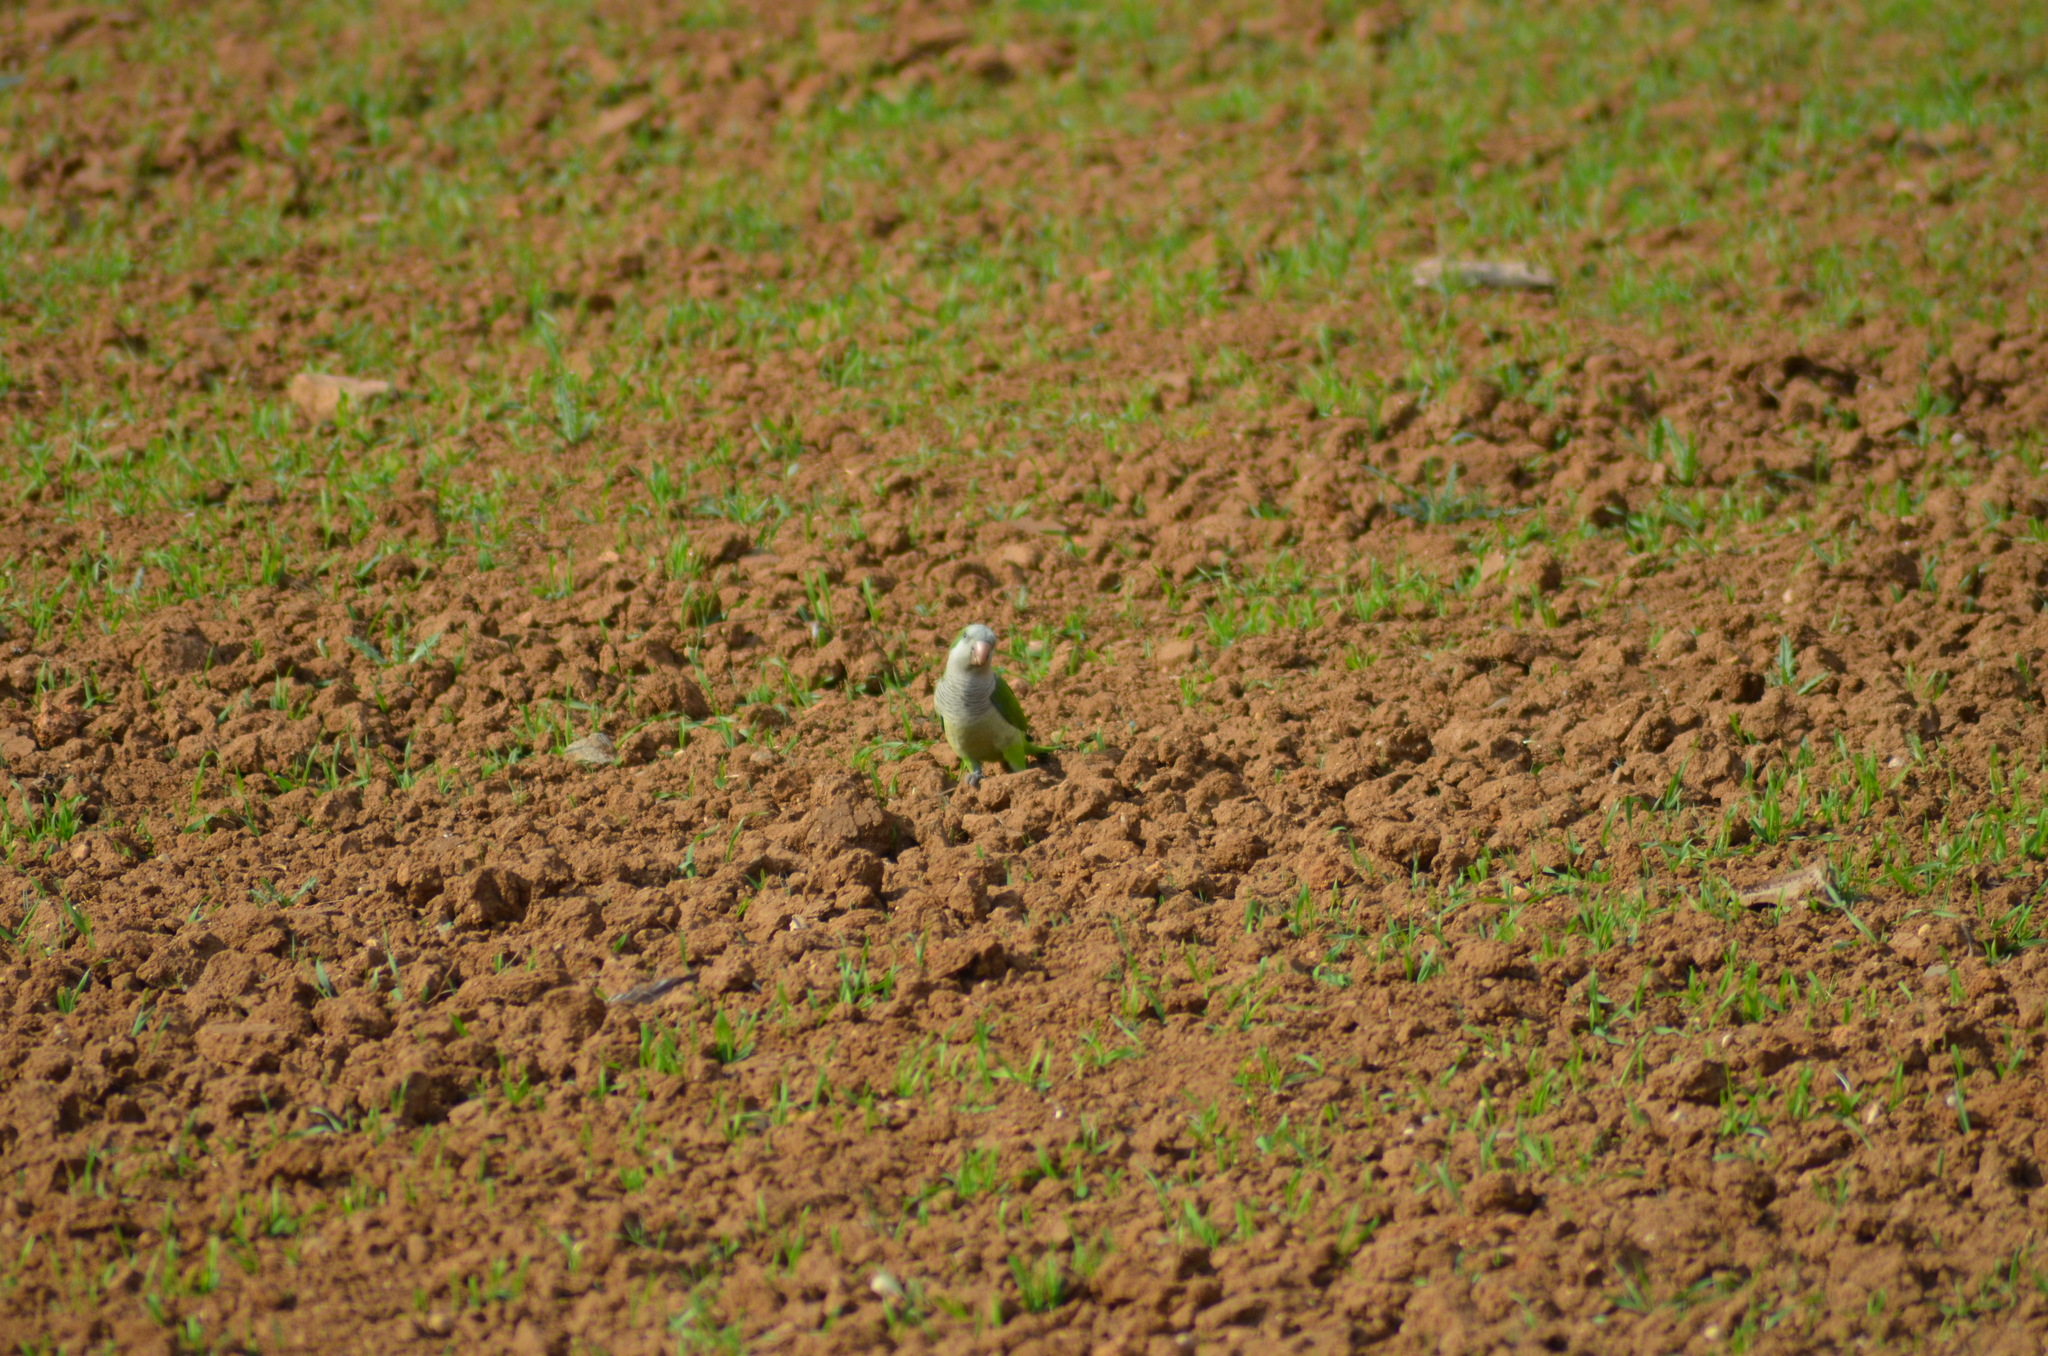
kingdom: Animalia
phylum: Chordata
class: Aves
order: Psittaciformes
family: Psittacidae
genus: Myiopsitta
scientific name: Myiopsitta monachus
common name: Monk parakeet
